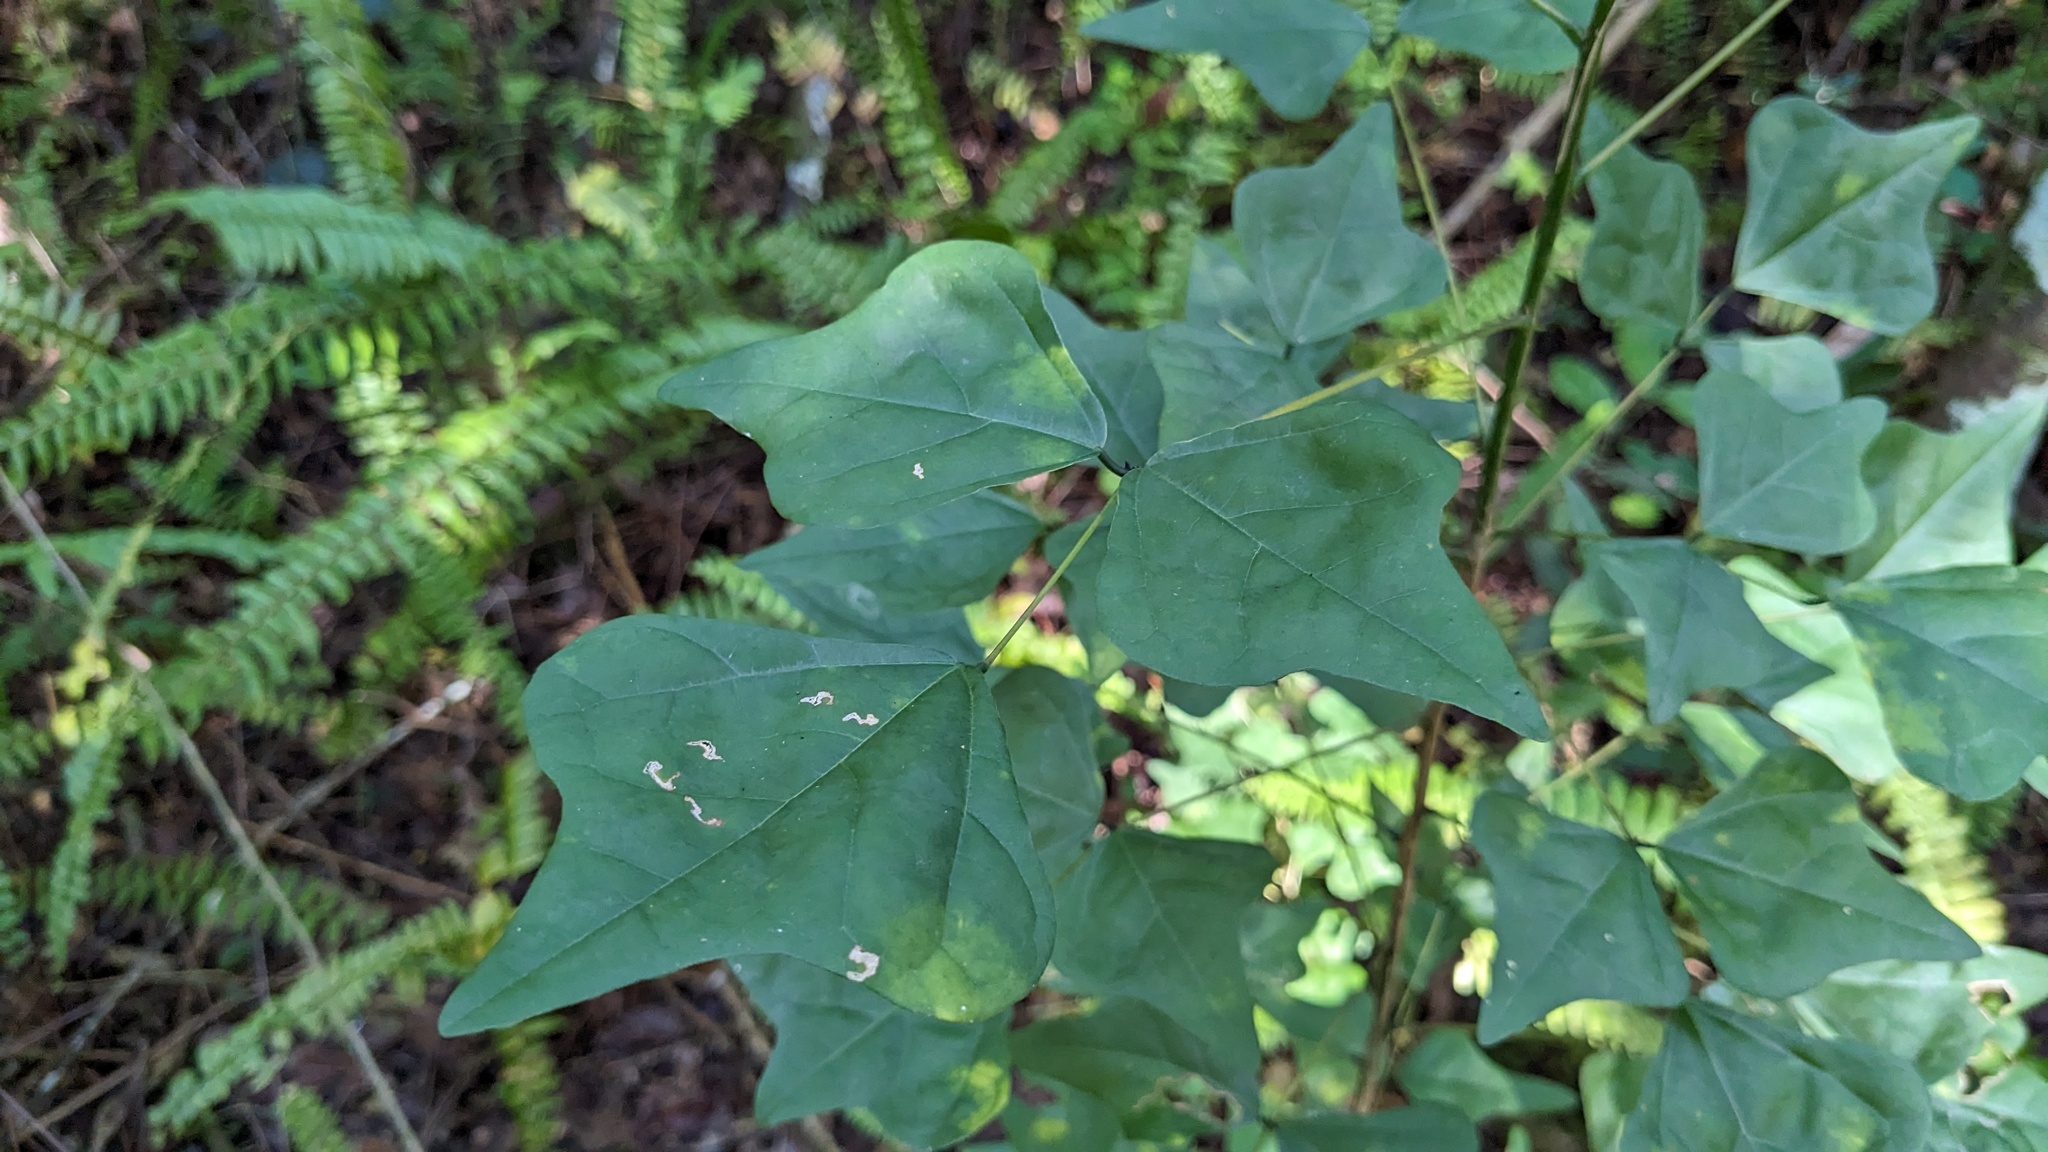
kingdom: Plantae
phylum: Tracheophyta
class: Magnoliopsida
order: Fabales
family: Fabaceae
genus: Erythrina
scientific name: Erythrina herbacea
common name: Coral-bean
